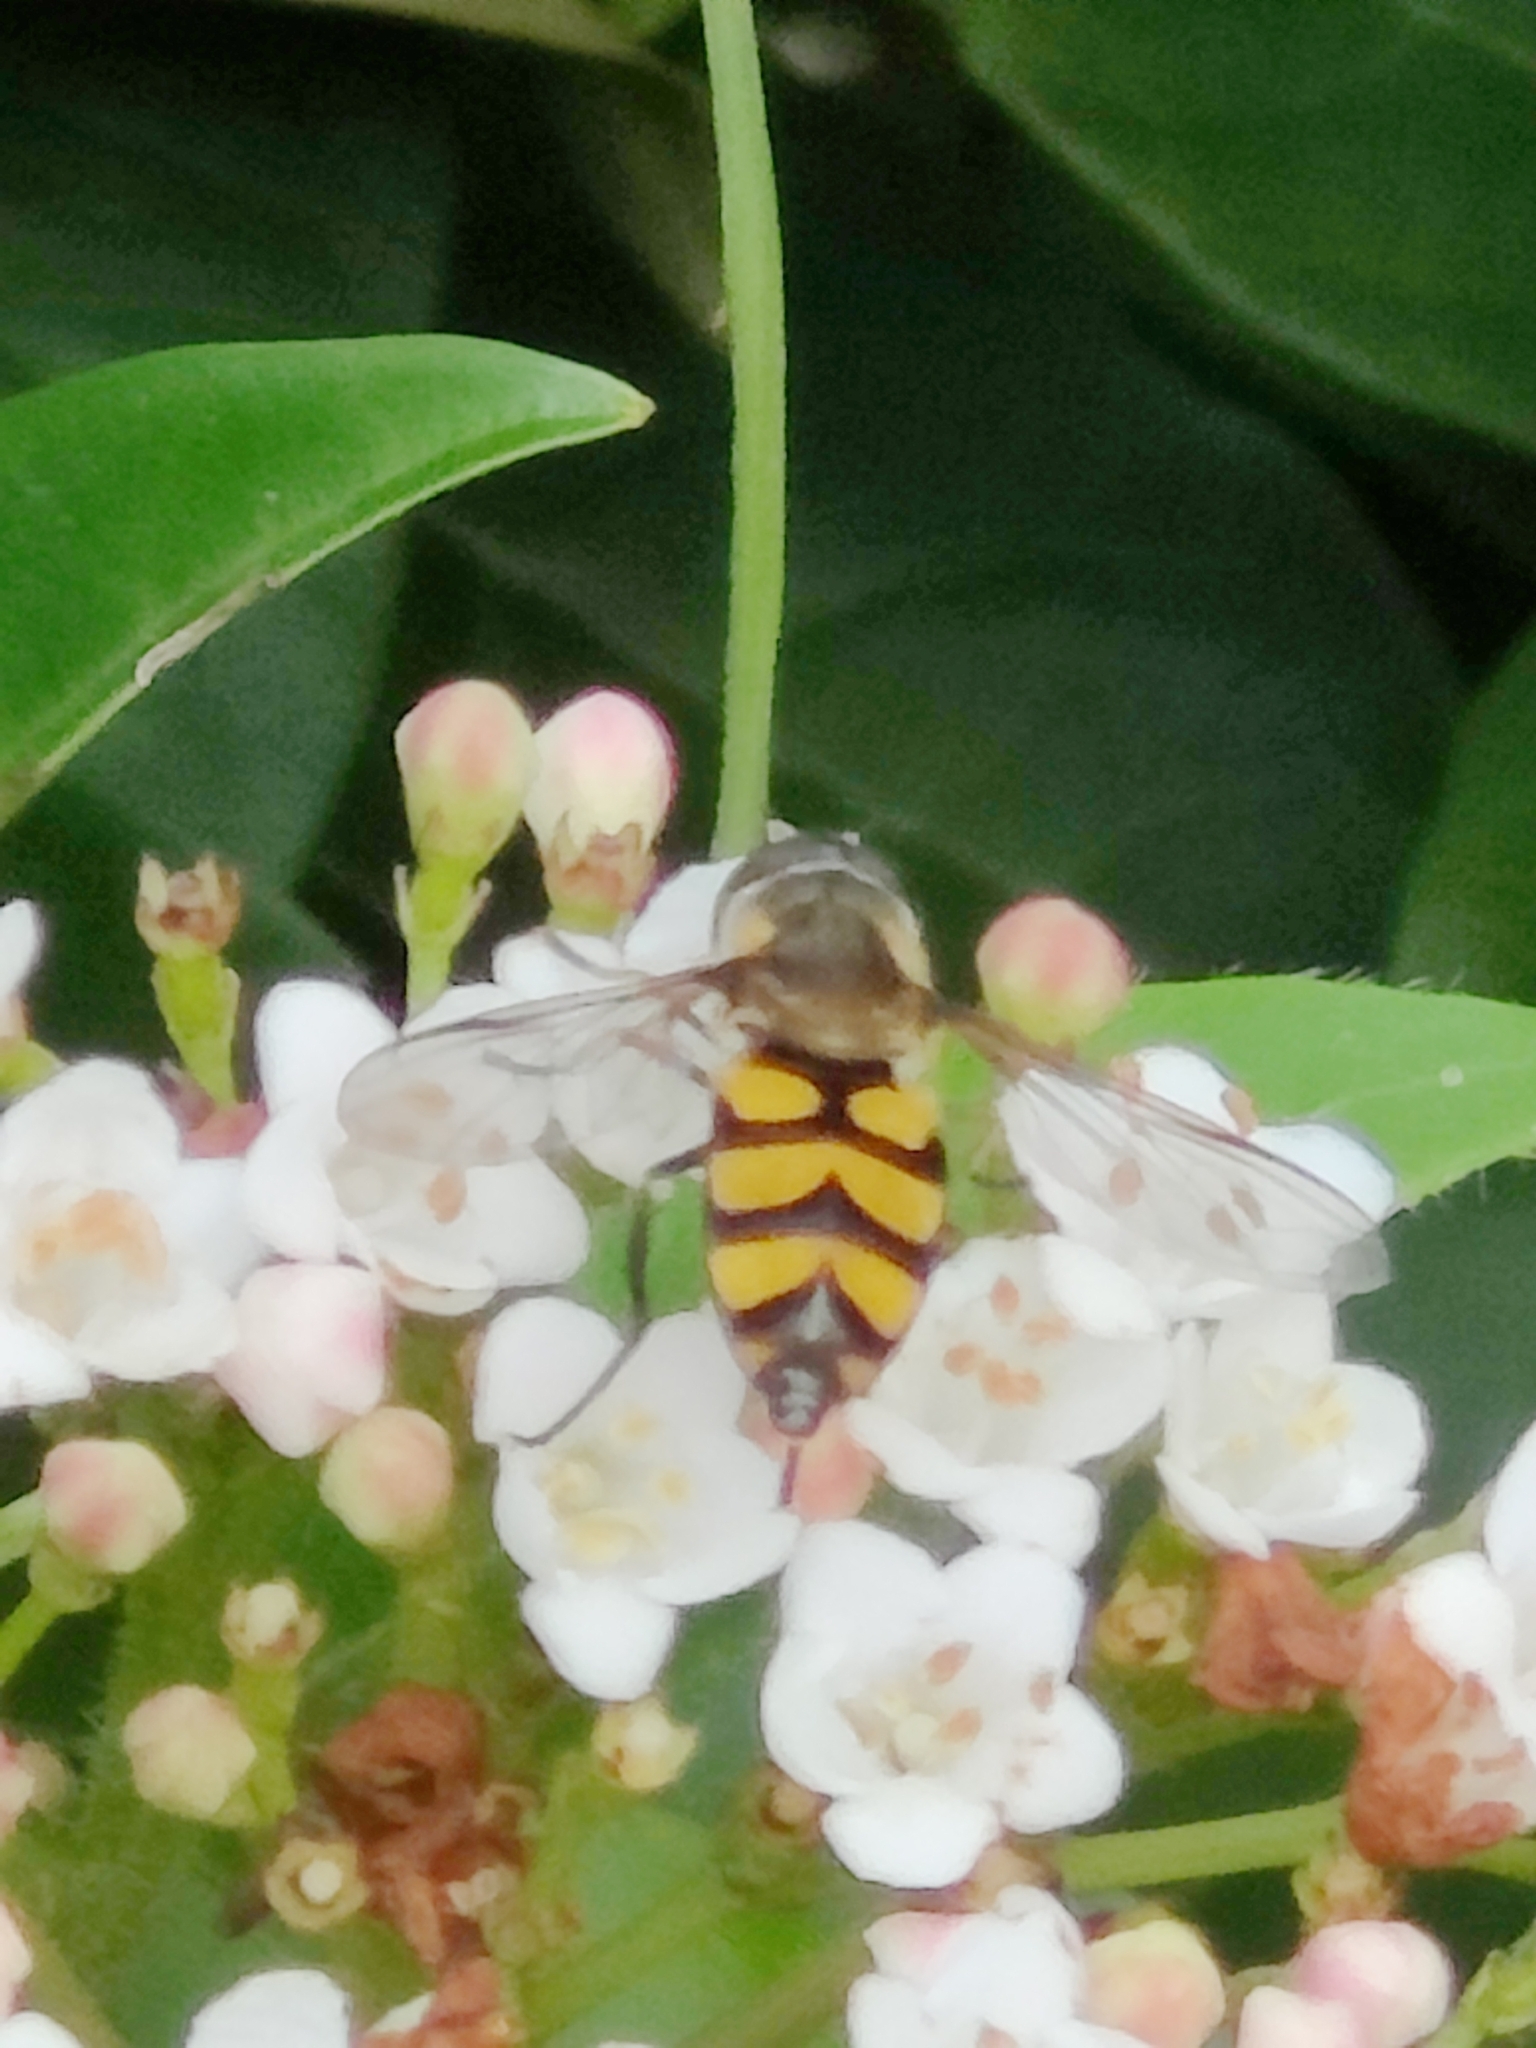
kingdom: Animalia
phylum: Arthropoda
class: Insecta
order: Diptera
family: Syrphidae
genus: Didea
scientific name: Didea
